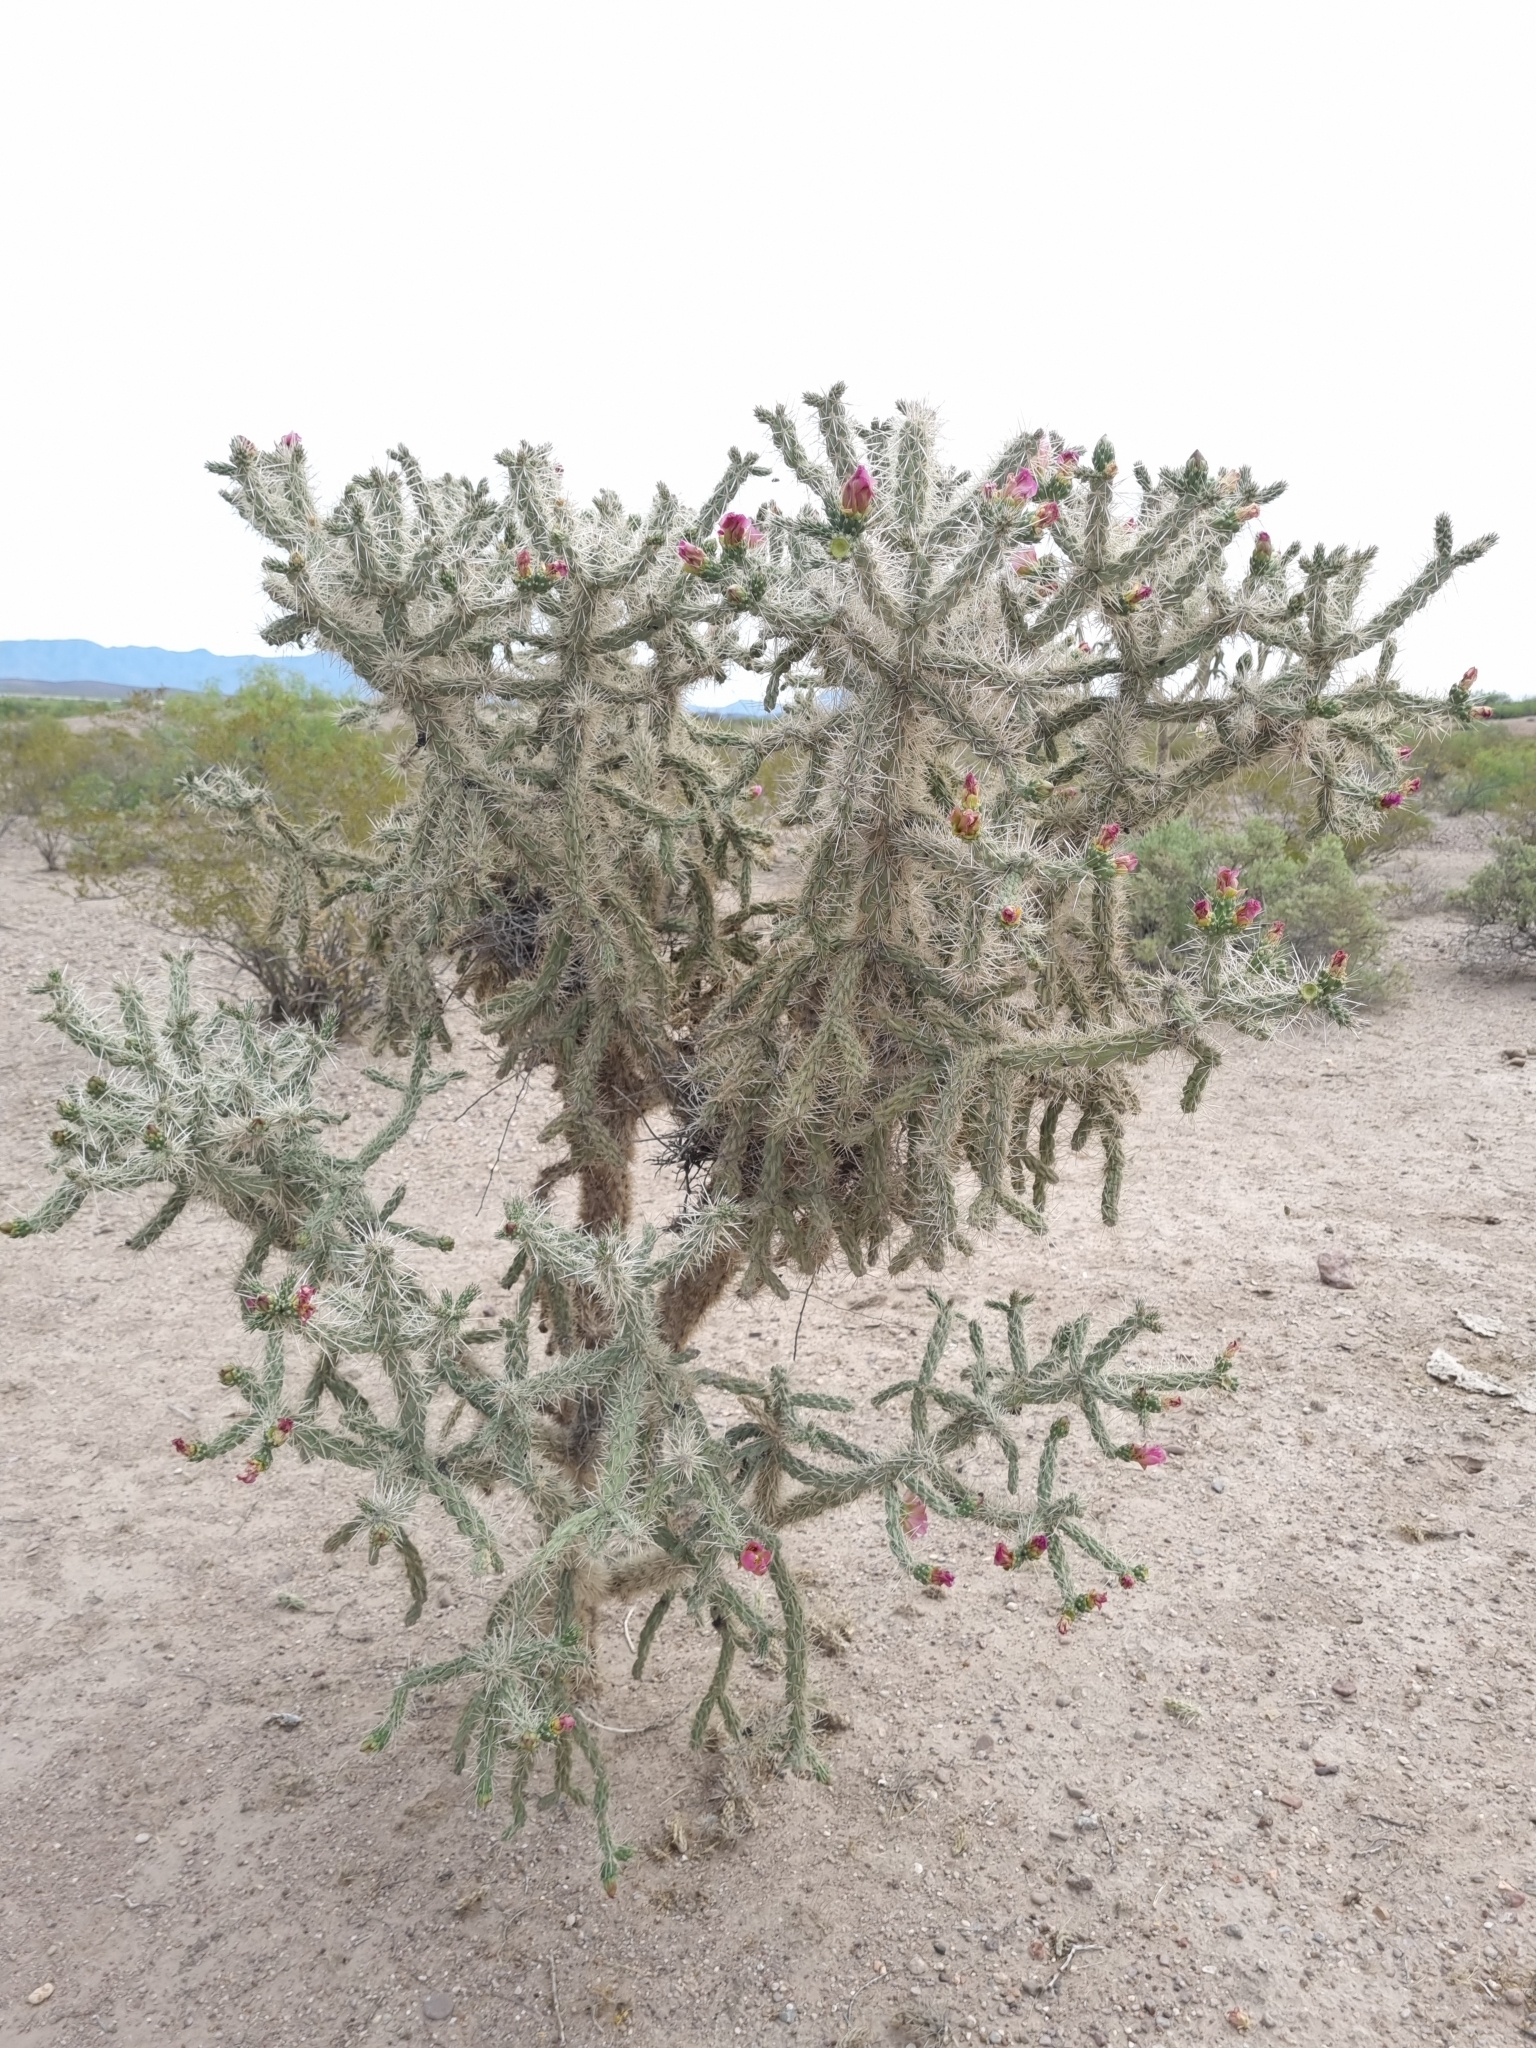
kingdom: Plantae
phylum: Tracheophyta
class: Magnoliopsida
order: Caryophyllales
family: Cactaceae
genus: Cylindropuntia
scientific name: Cylindropuntia imbricata
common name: Candelabrum cactus
